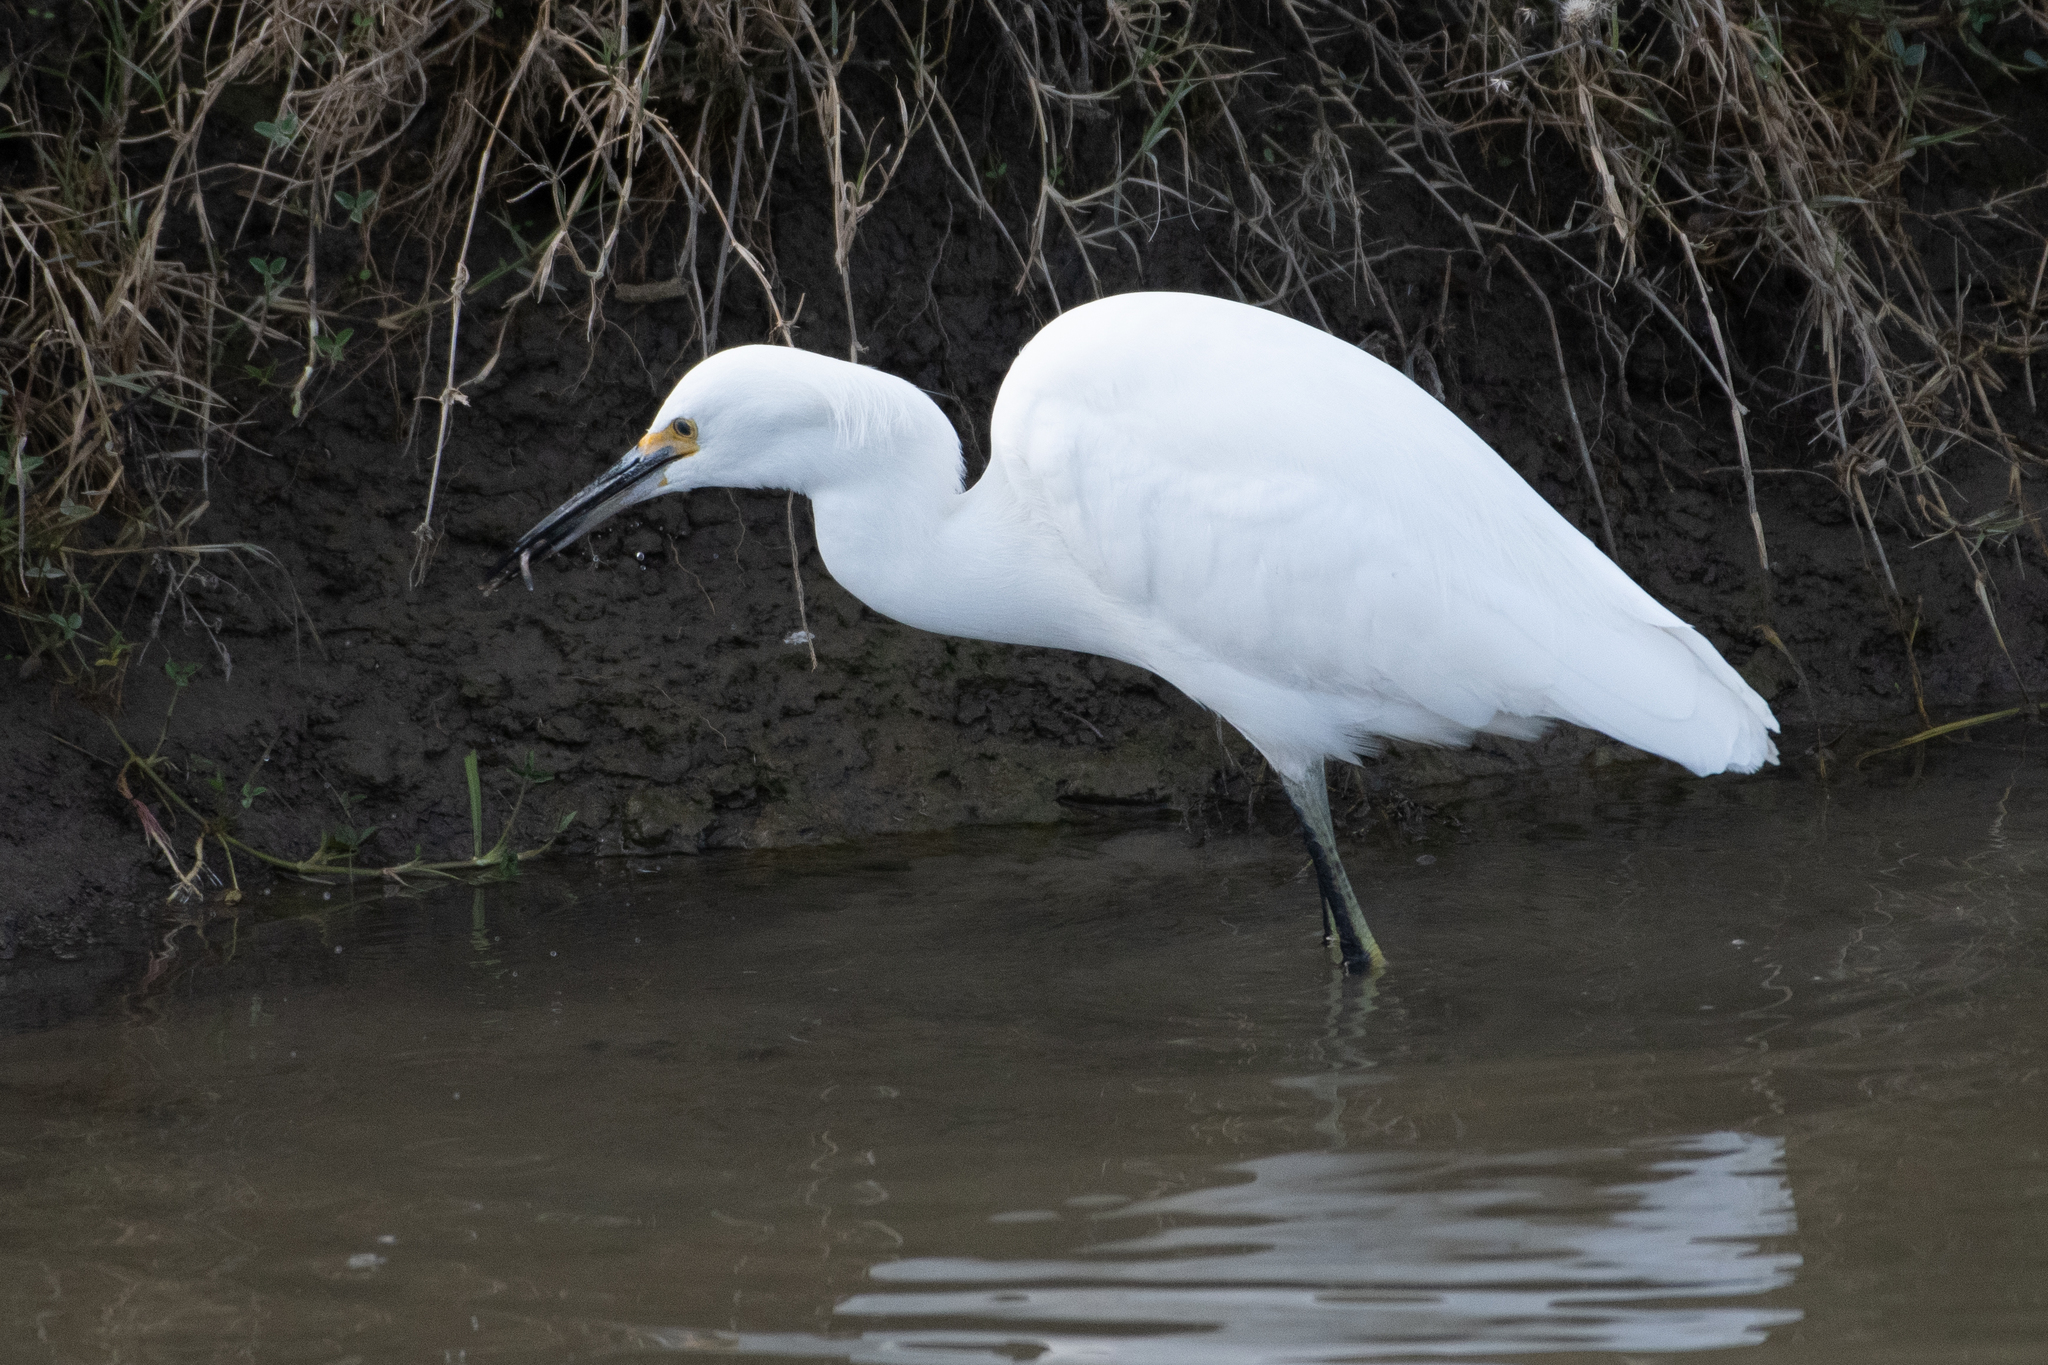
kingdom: Animalia
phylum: Chordata
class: Aves
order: Pelecaniformes
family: Ardeidae
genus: Egretta
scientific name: Egretta thula
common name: Snowy egret
